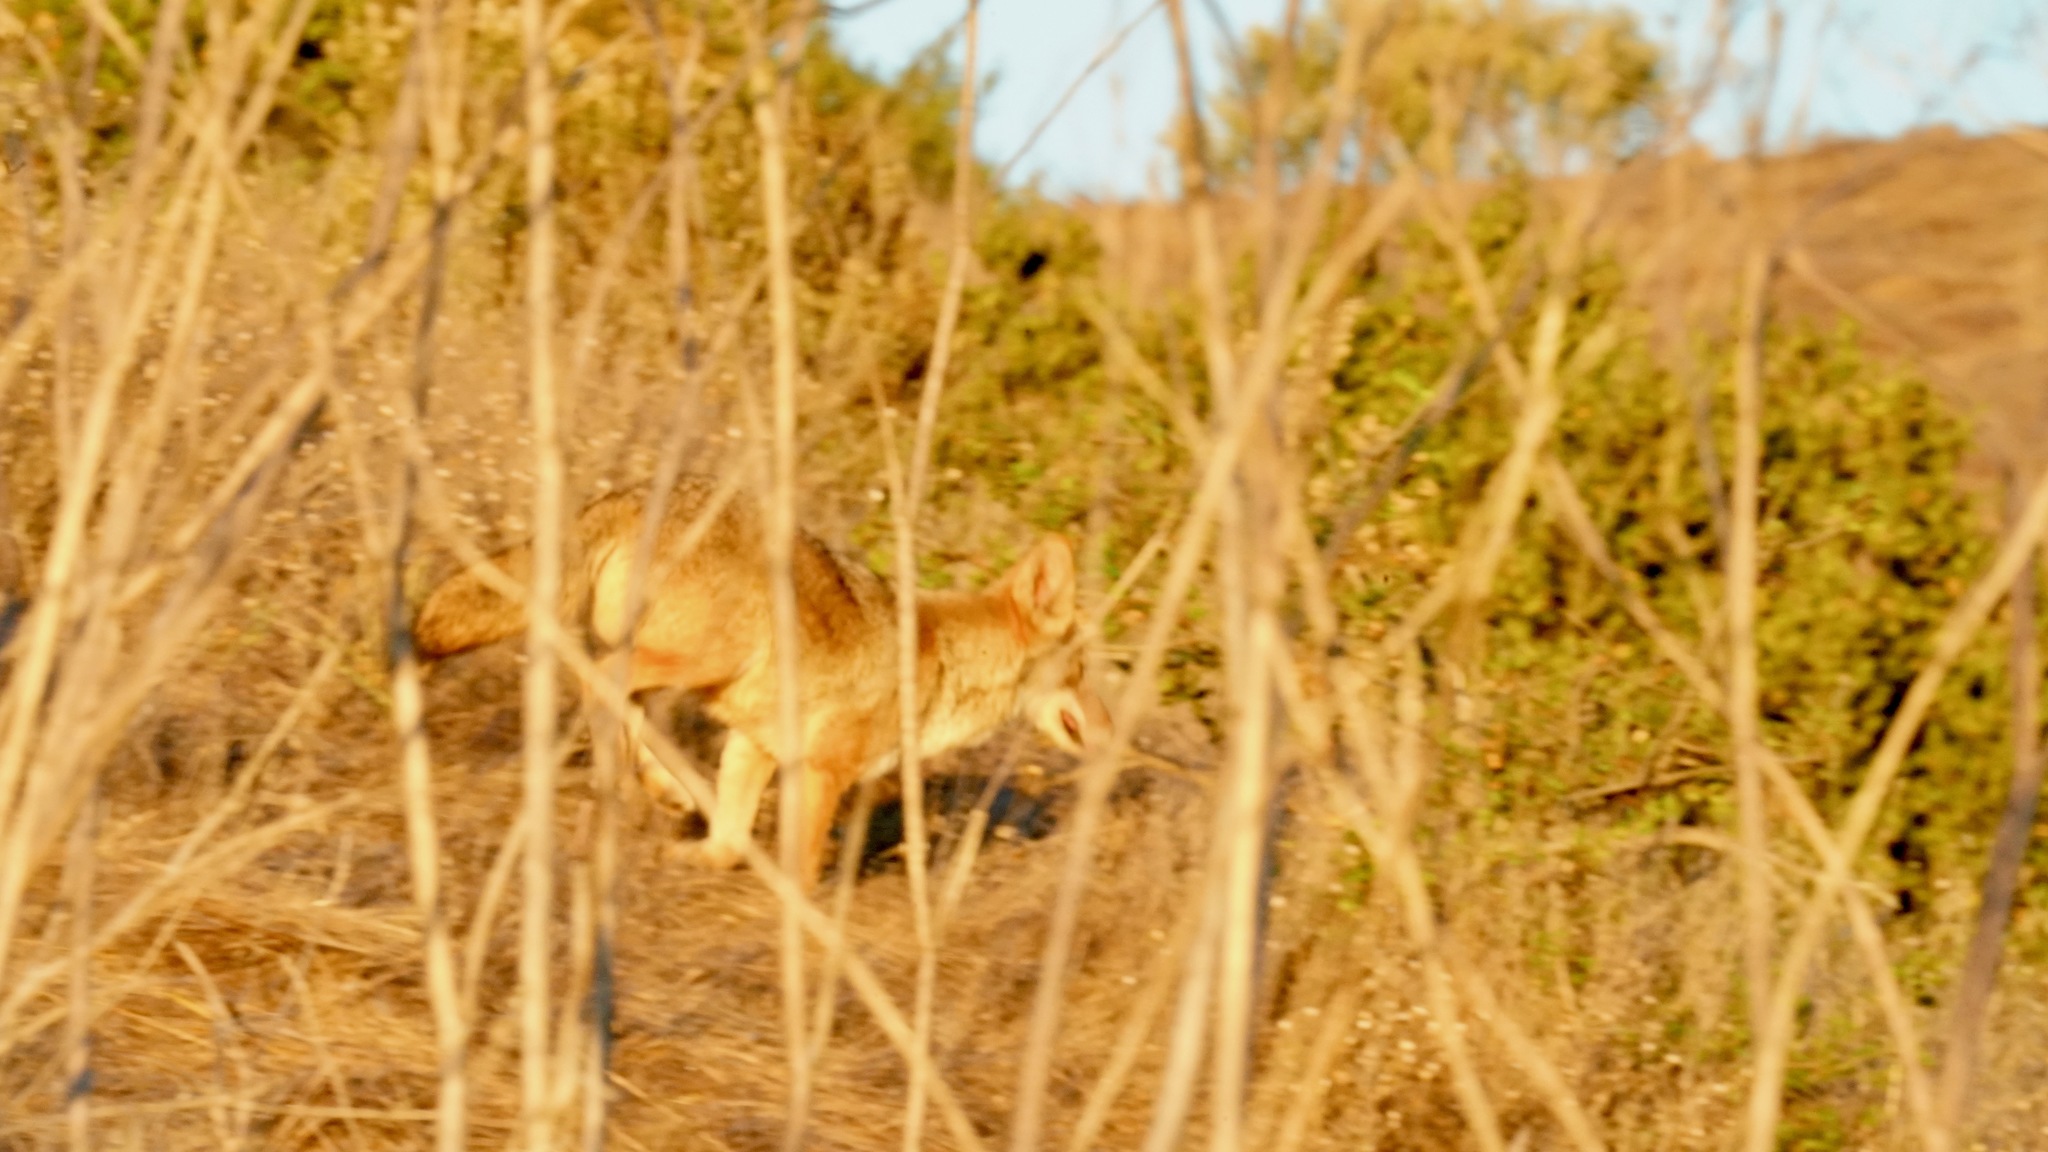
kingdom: Animalia
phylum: Chordata
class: Mammalia
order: Carnivora
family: Canidae
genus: Canis
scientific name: Canis latrans
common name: Coyote
